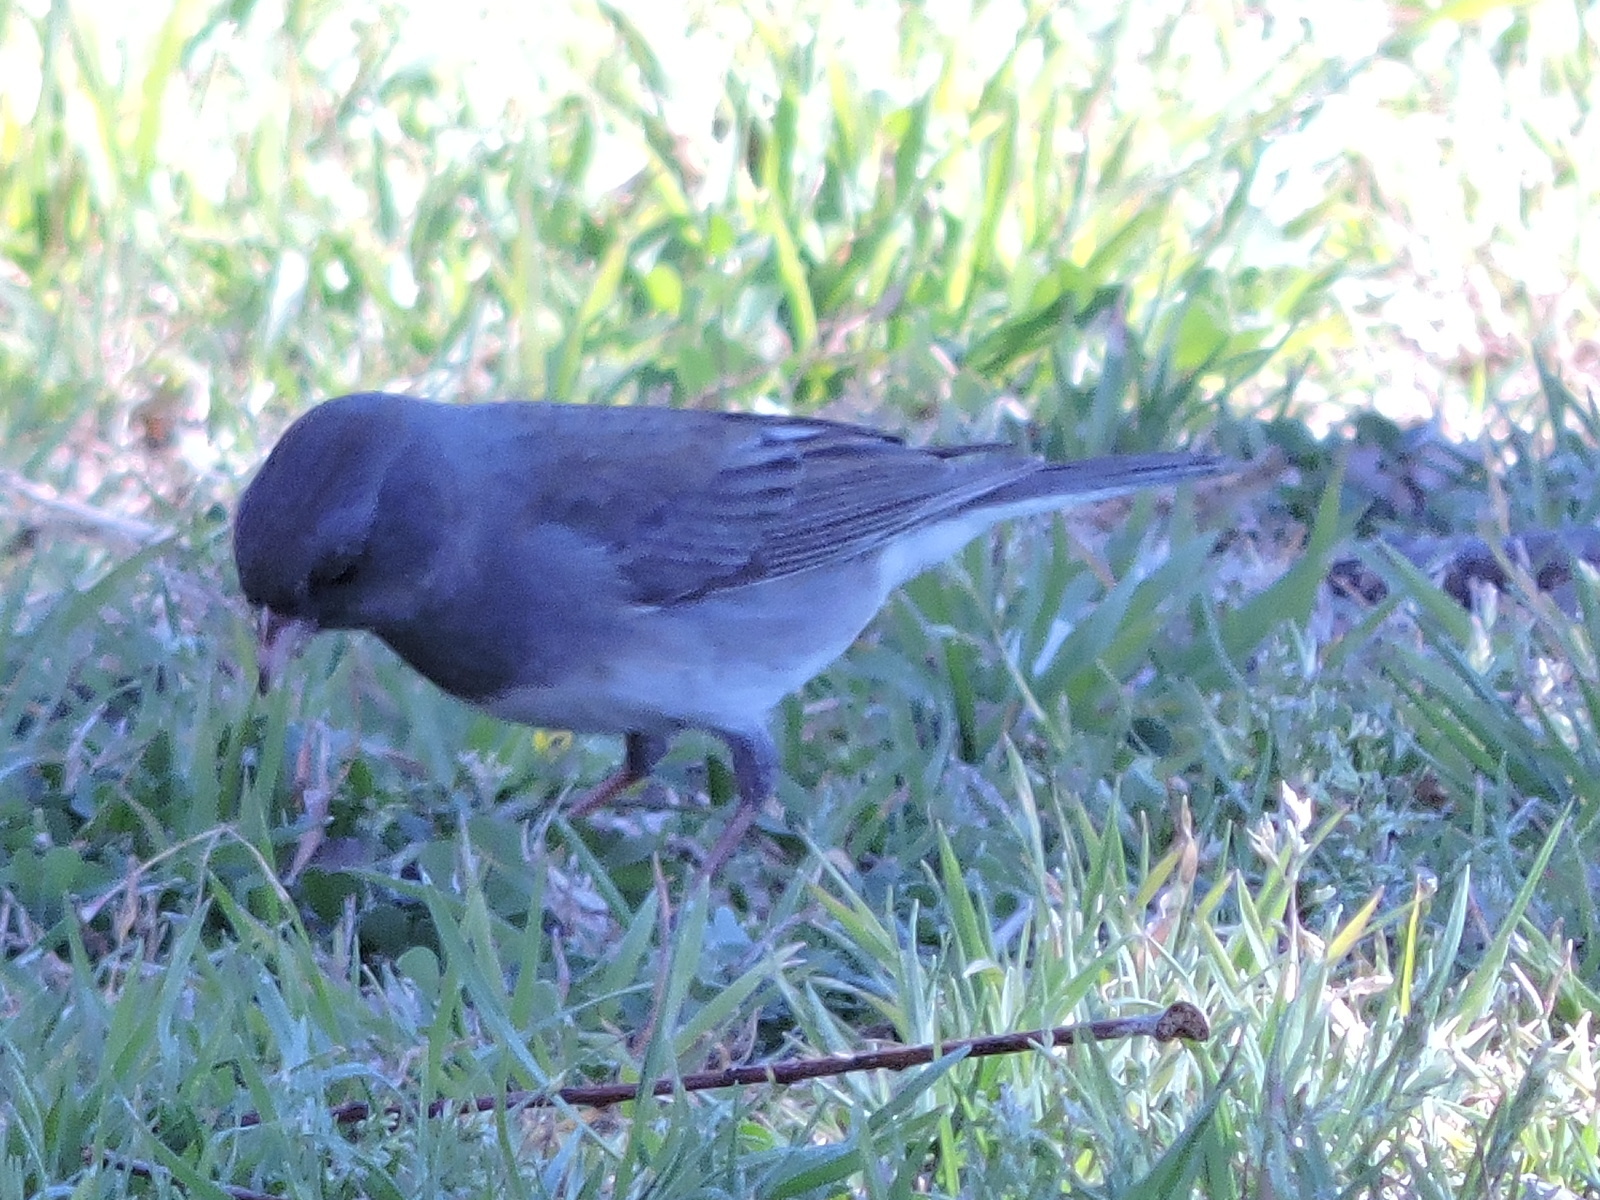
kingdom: Animalia
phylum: Chordata
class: Aves
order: Passeriformes
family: Passerellidae
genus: Junco
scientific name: Junco hyemalis
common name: Dark-eyed junco
